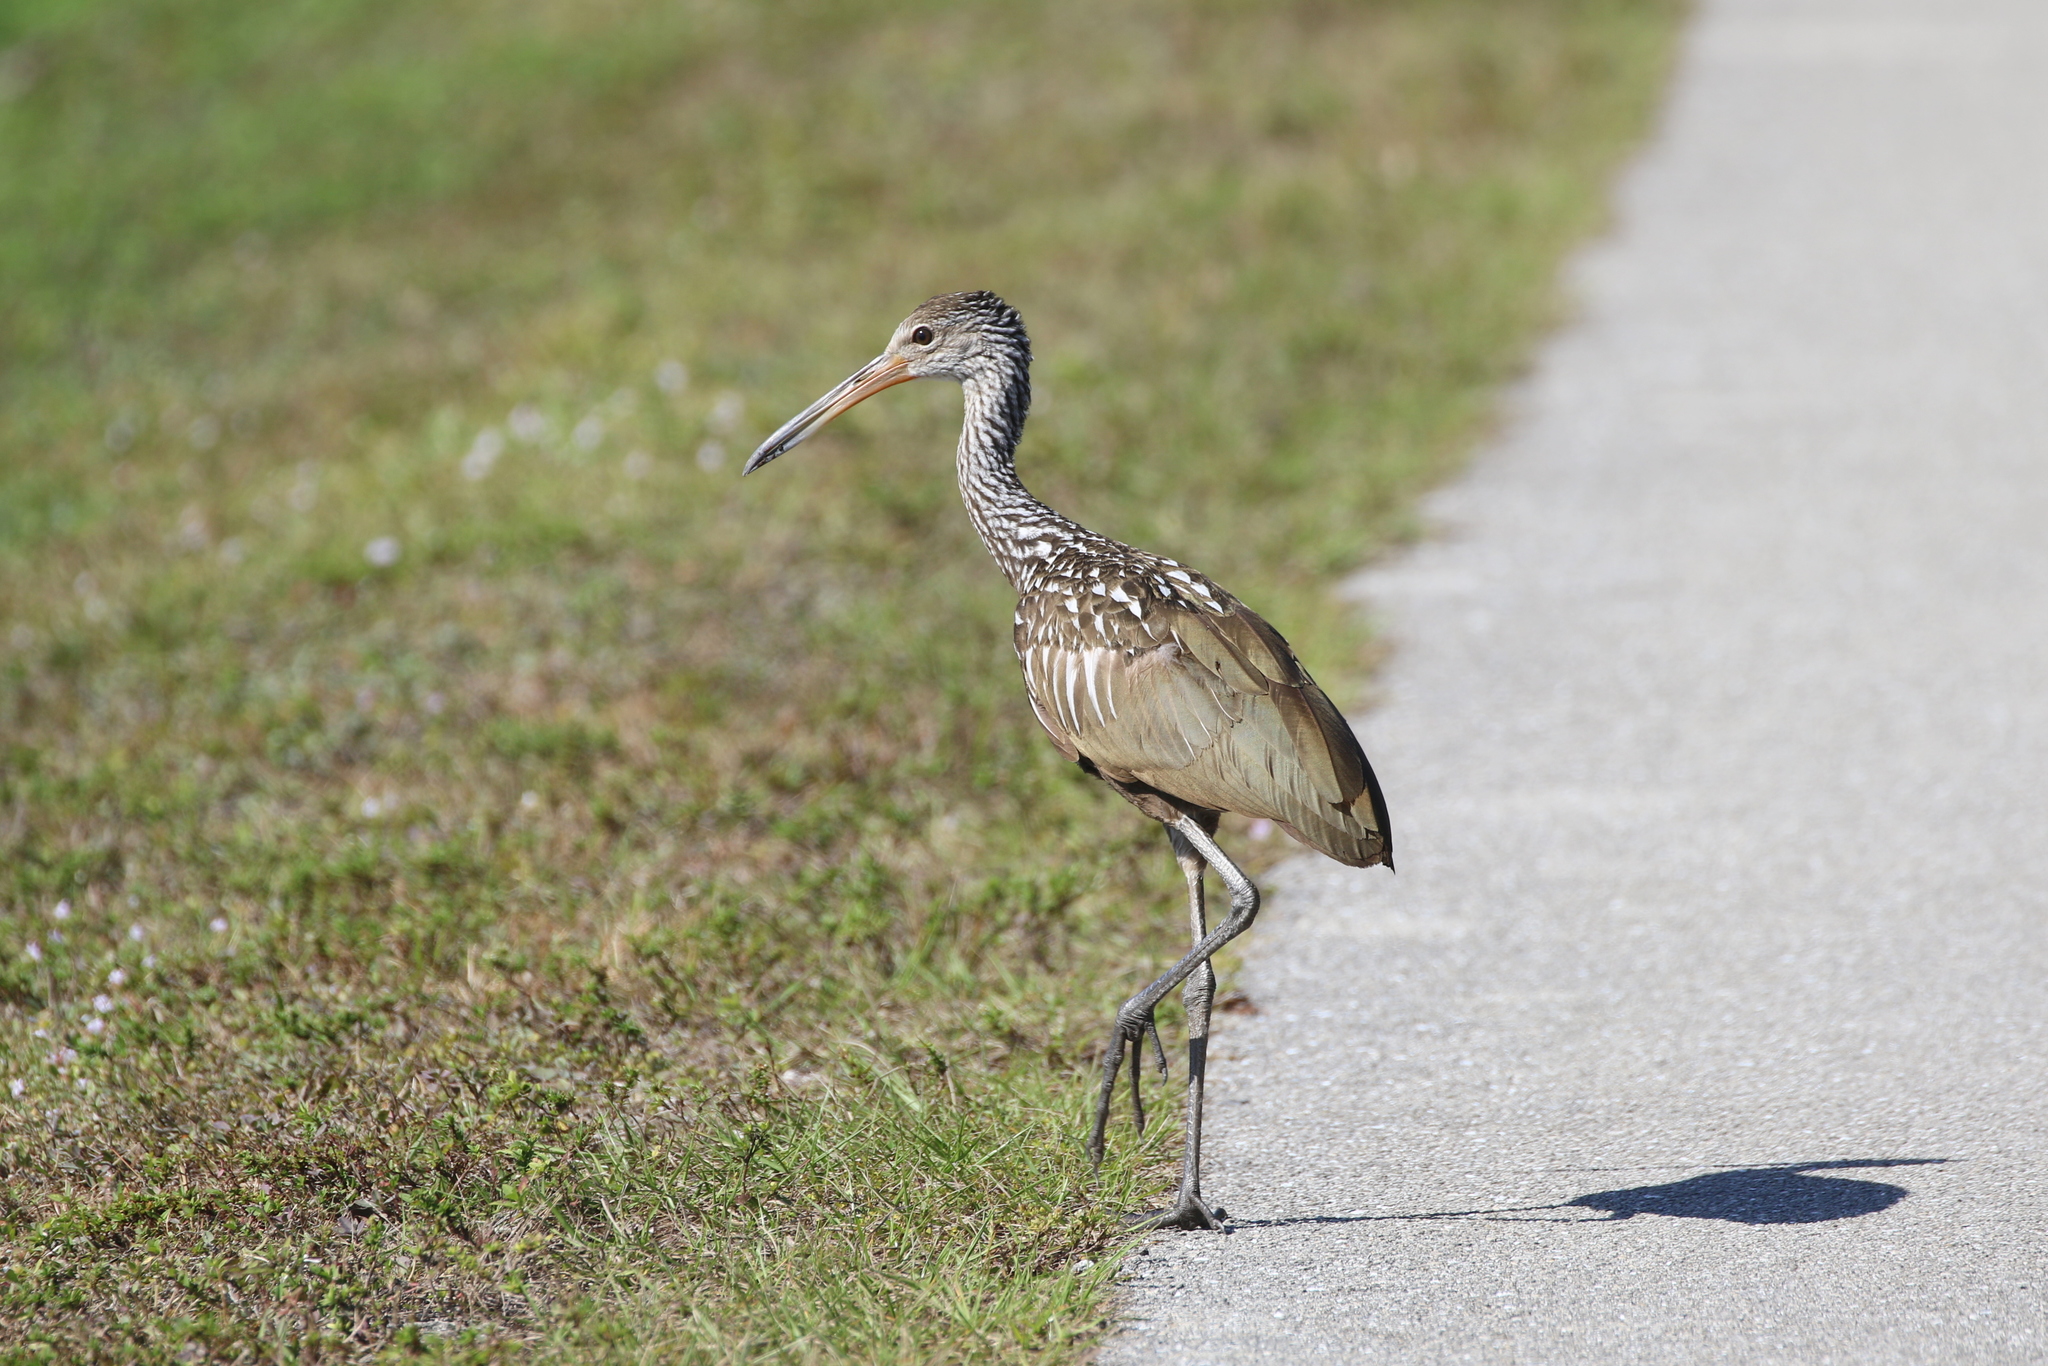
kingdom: Animalia
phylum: Chordata
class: Aves
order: Gruiformes
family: Aramidae
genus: Aramus
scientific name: Aramus guarauna
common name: Limpkin
